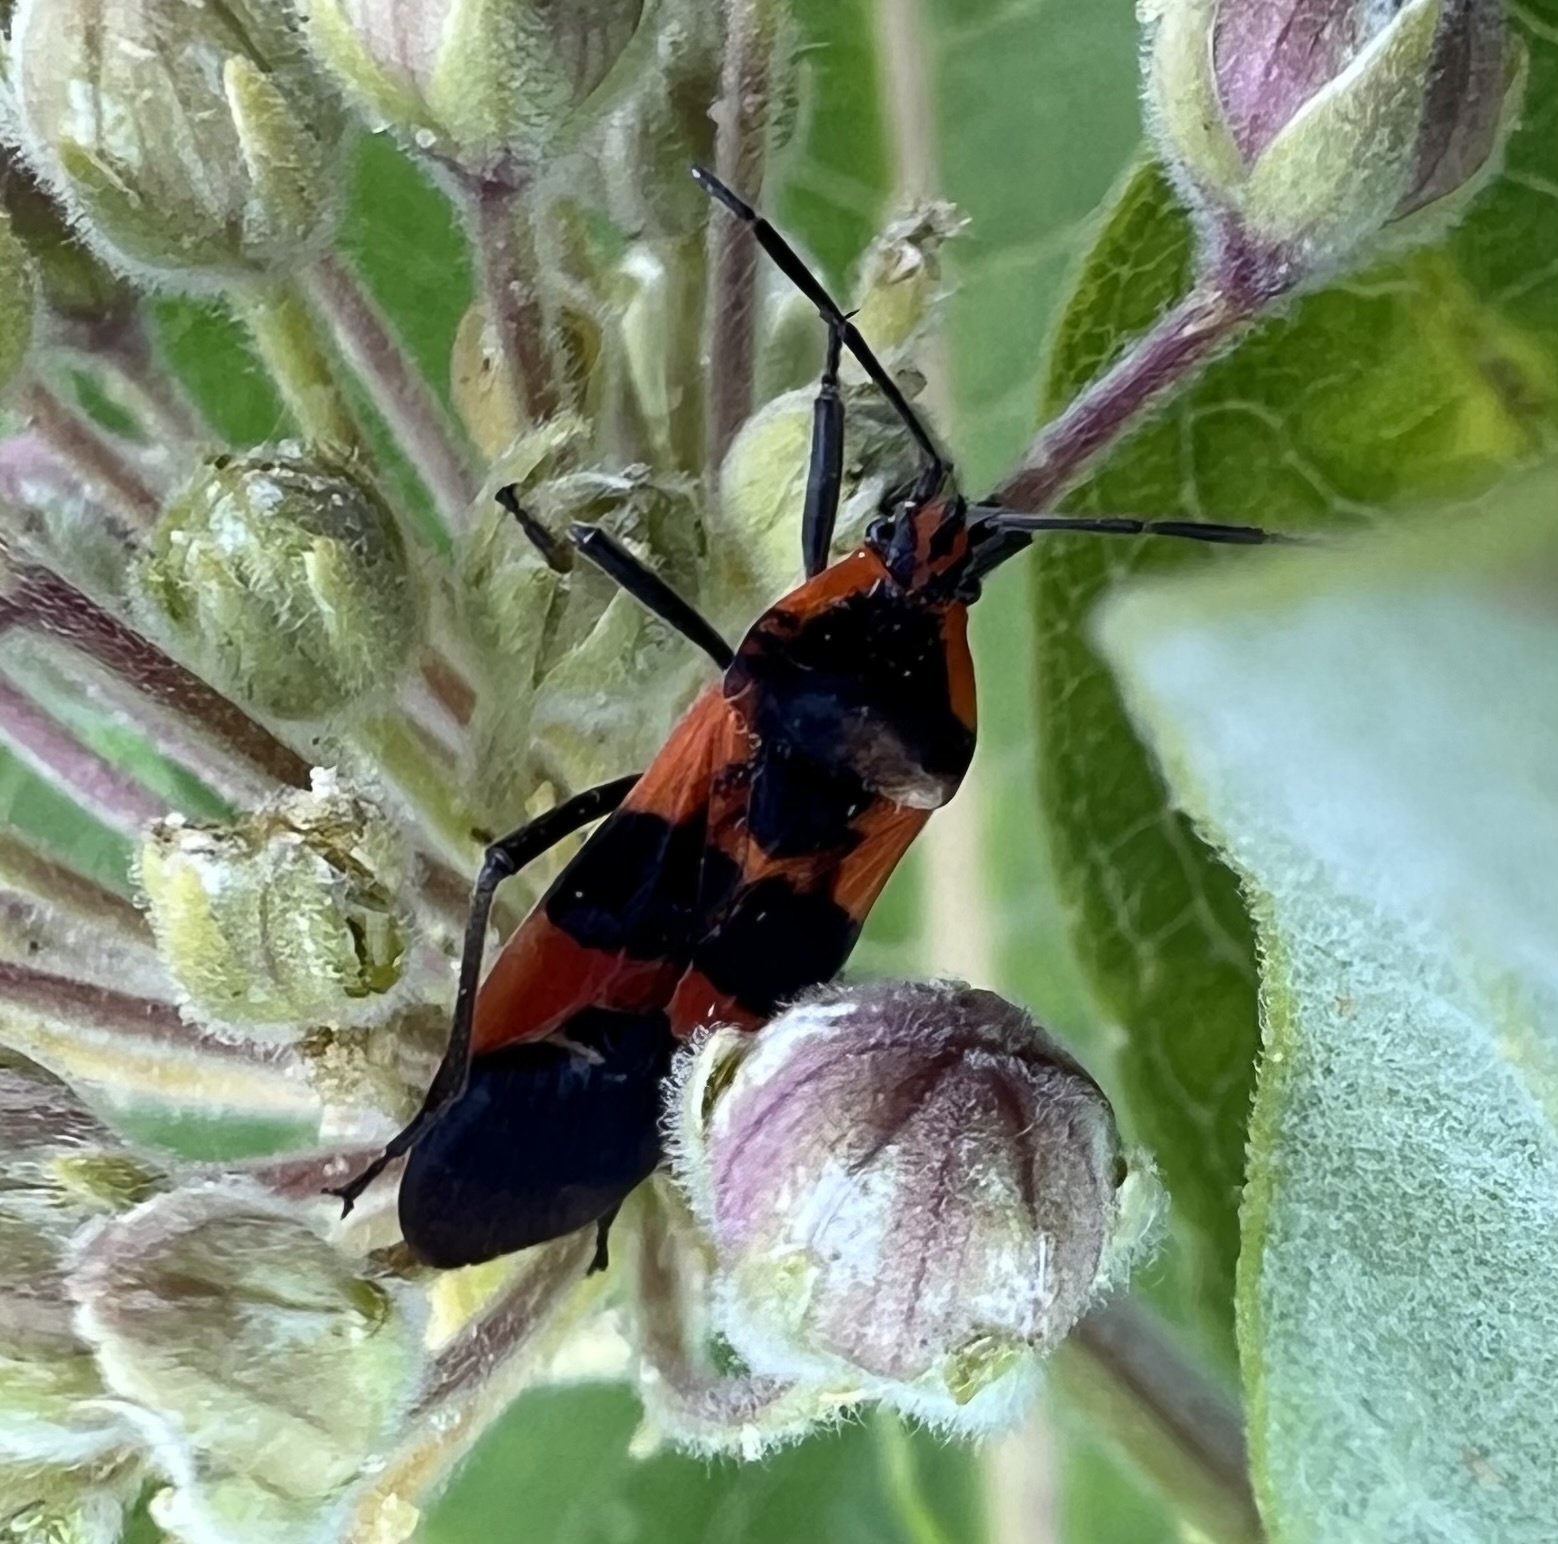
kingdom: Animalia
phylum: Arthropoda
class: Insecta
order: Hemiptera
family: Lygaeidae
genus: Oncopeltus
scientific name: Oncopeltus fasciatus
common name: Large milkweed bug
